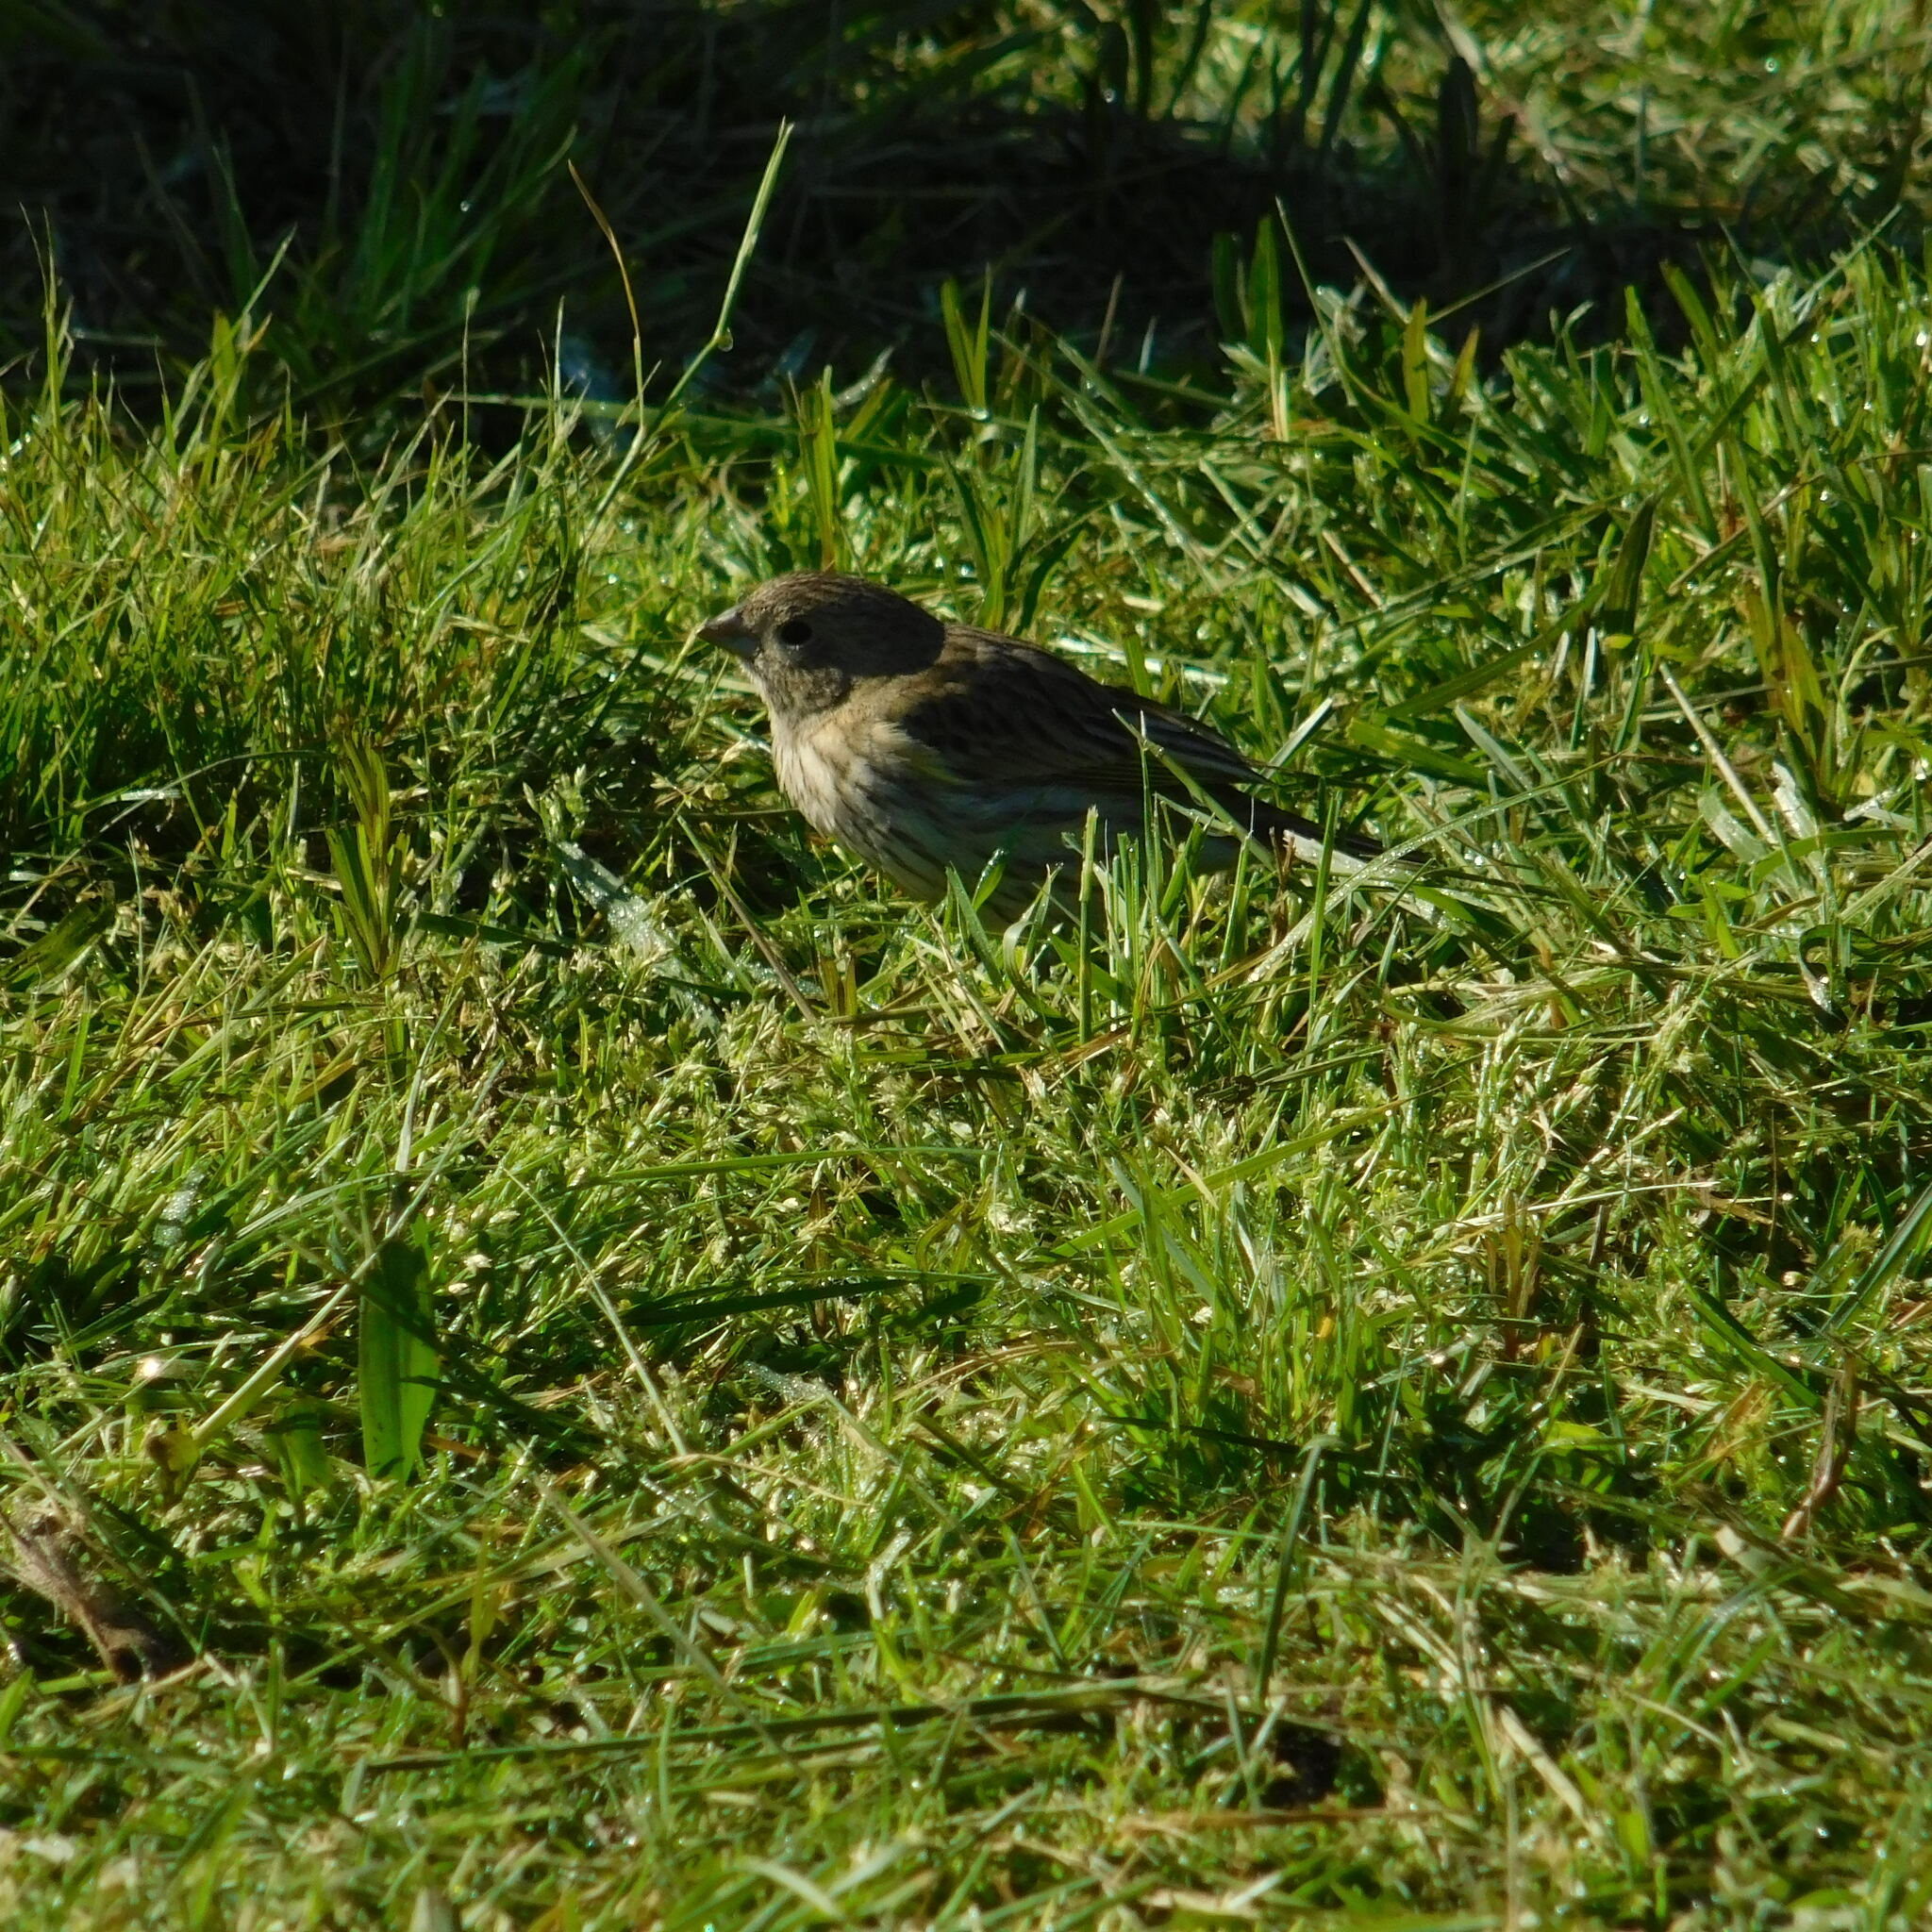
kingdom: Animalia
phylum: Chordata
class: Aves
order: Passeriformes
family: Thraupidae
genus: Sicalis
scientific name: Sicalis flaveola
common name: Saffron finch
